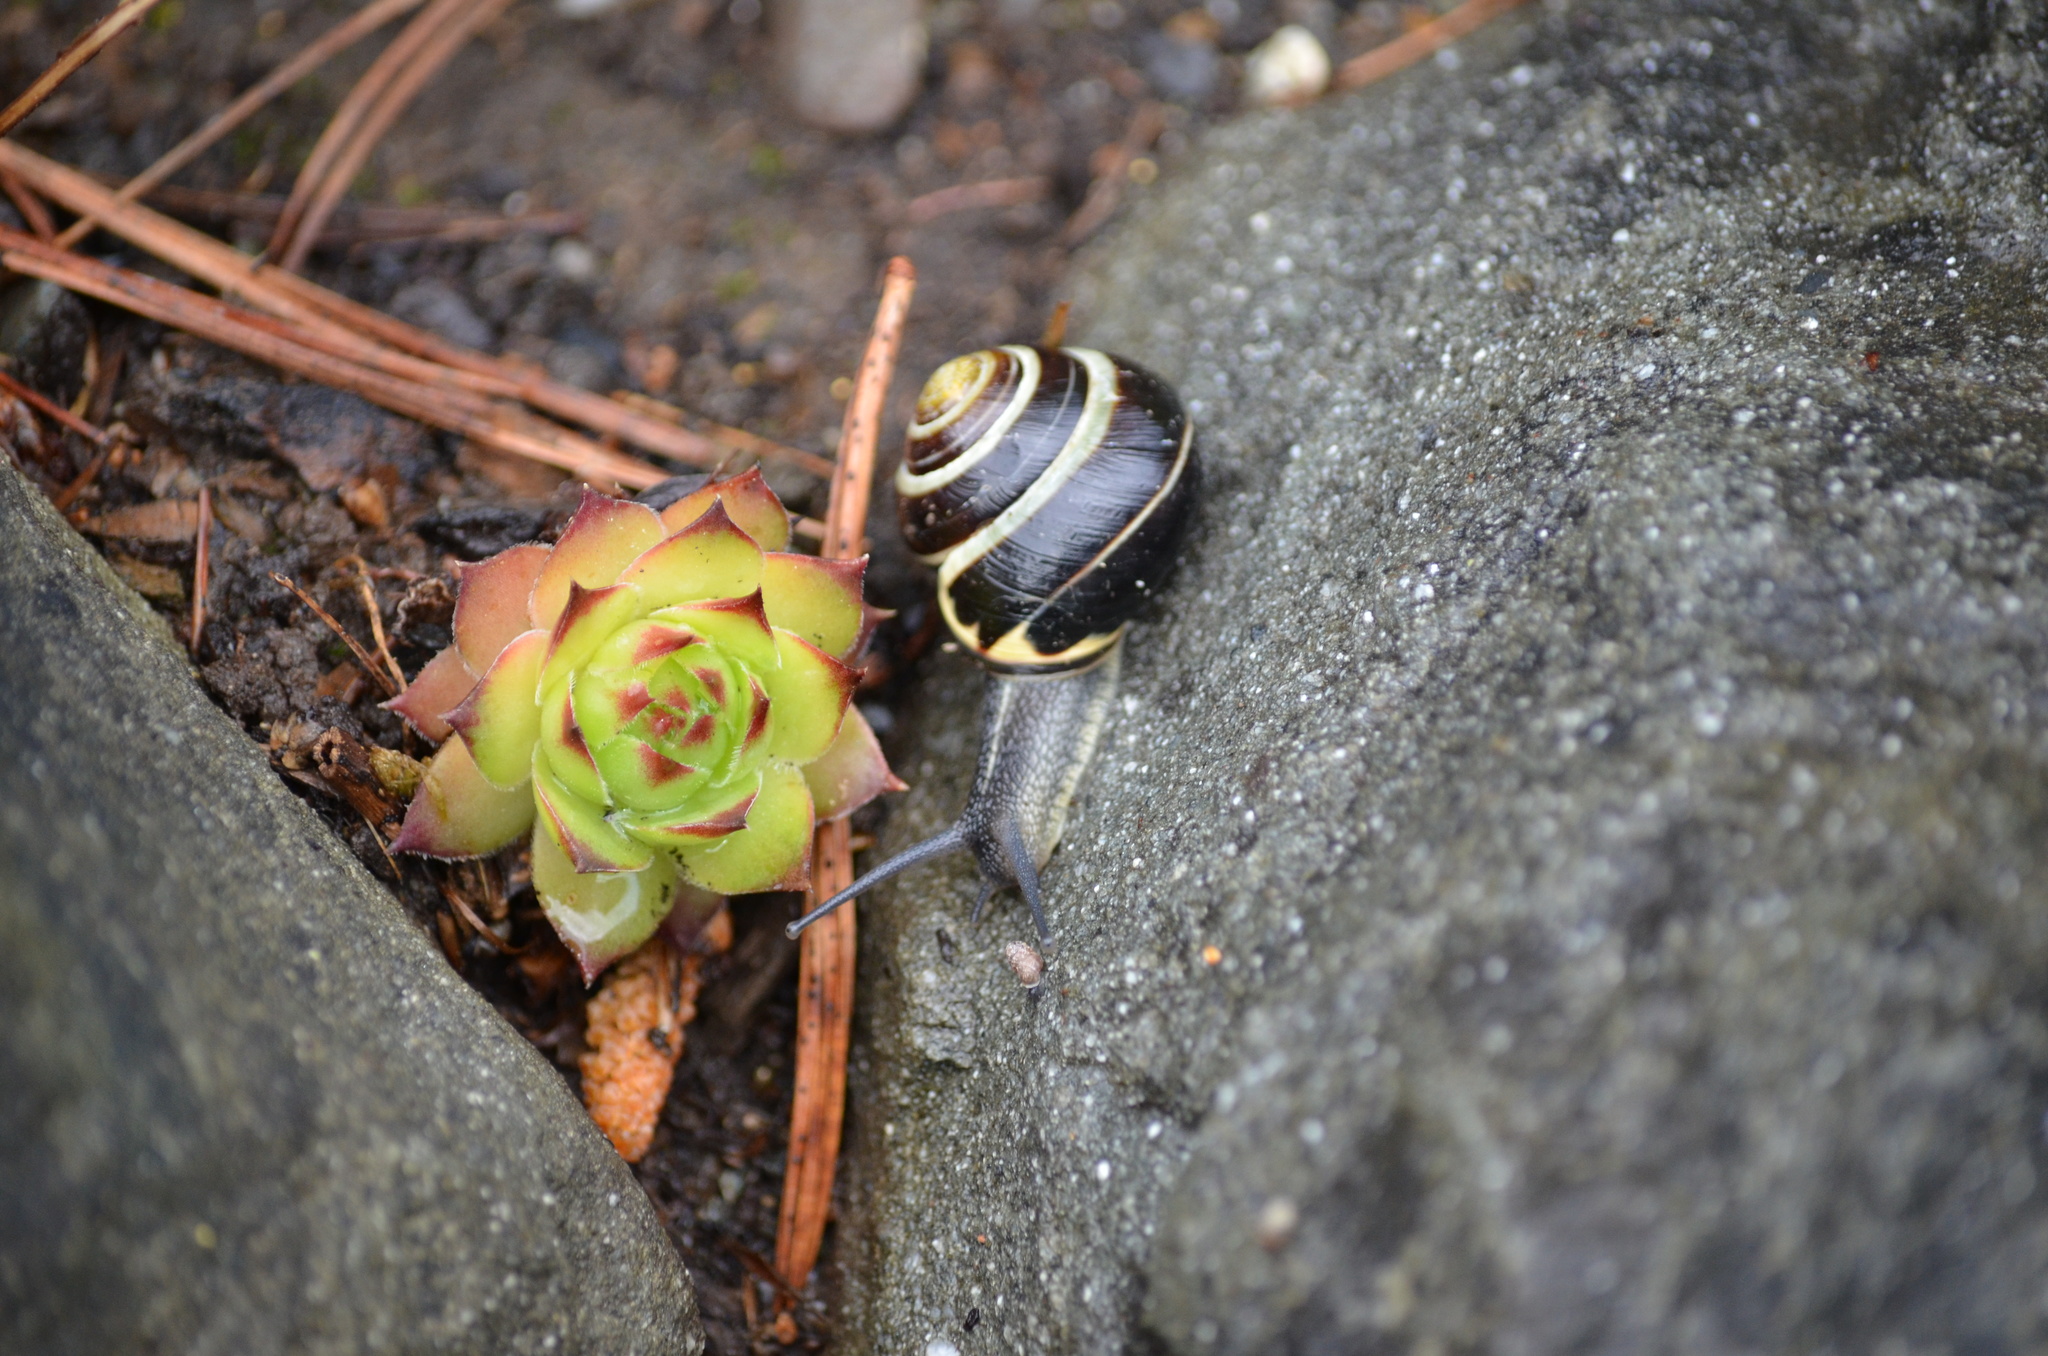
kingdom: Animalia
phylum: Mollusca
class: Gastropoda
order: Stylommatophora
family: Helicidae
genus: Cepaea
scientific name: Cepaea nemoralis
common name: Grovesnail
